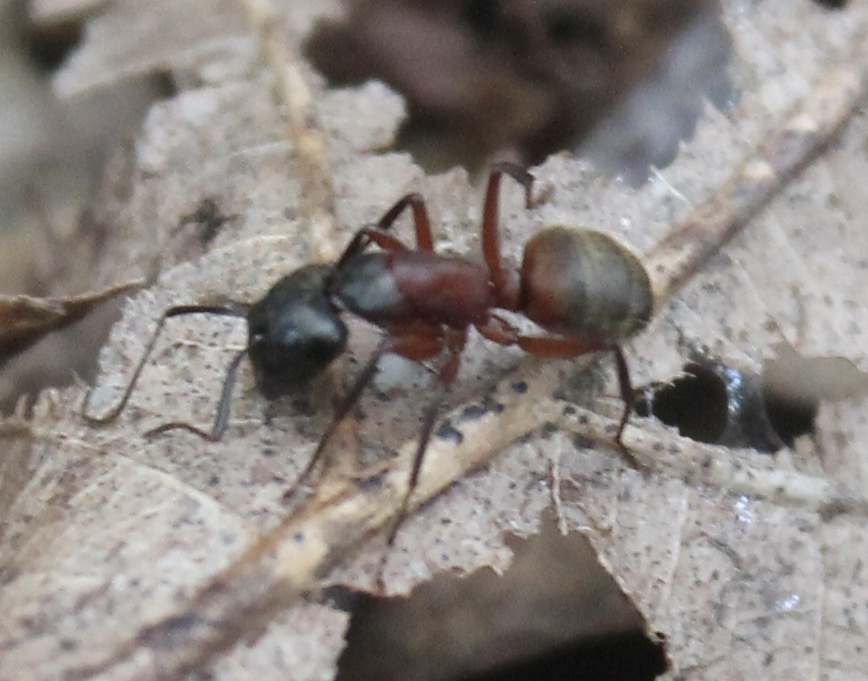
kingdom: Animalia
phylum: Arthropoda
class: Insecta
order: Hymenoptera
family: Formicidae
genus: Camponotus
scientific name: Camponotus chromaiodes
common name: Red carpenter ant
